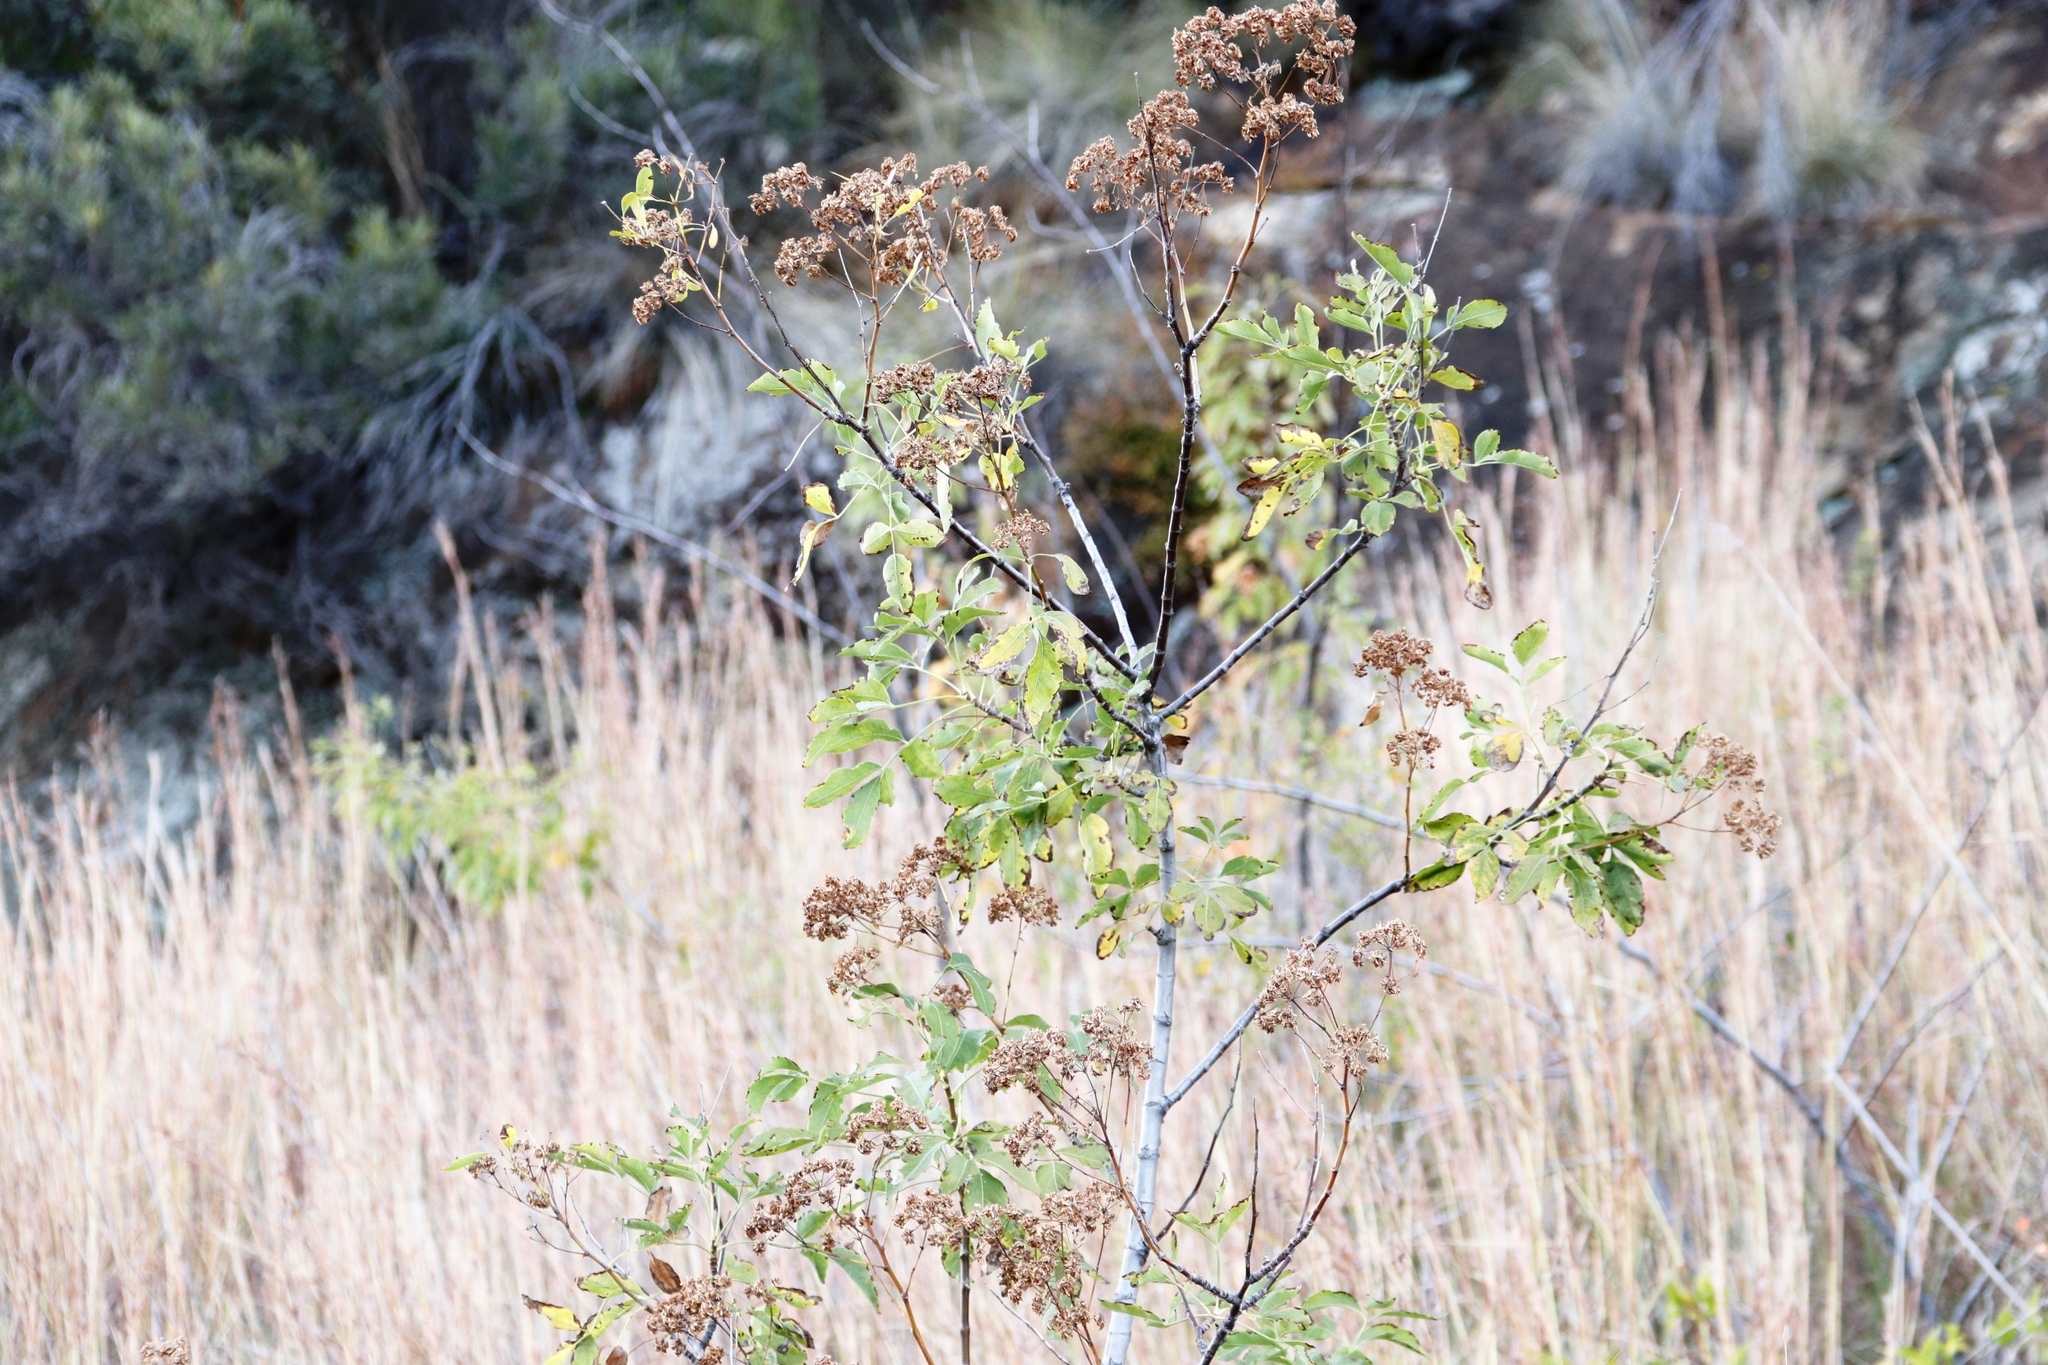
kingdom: Plantae
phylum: Tracheophyta
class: Magnoliopsida
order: Apiales
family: Apiaceae
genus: Heteromorpha
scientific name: Heteromorpha arborescens
